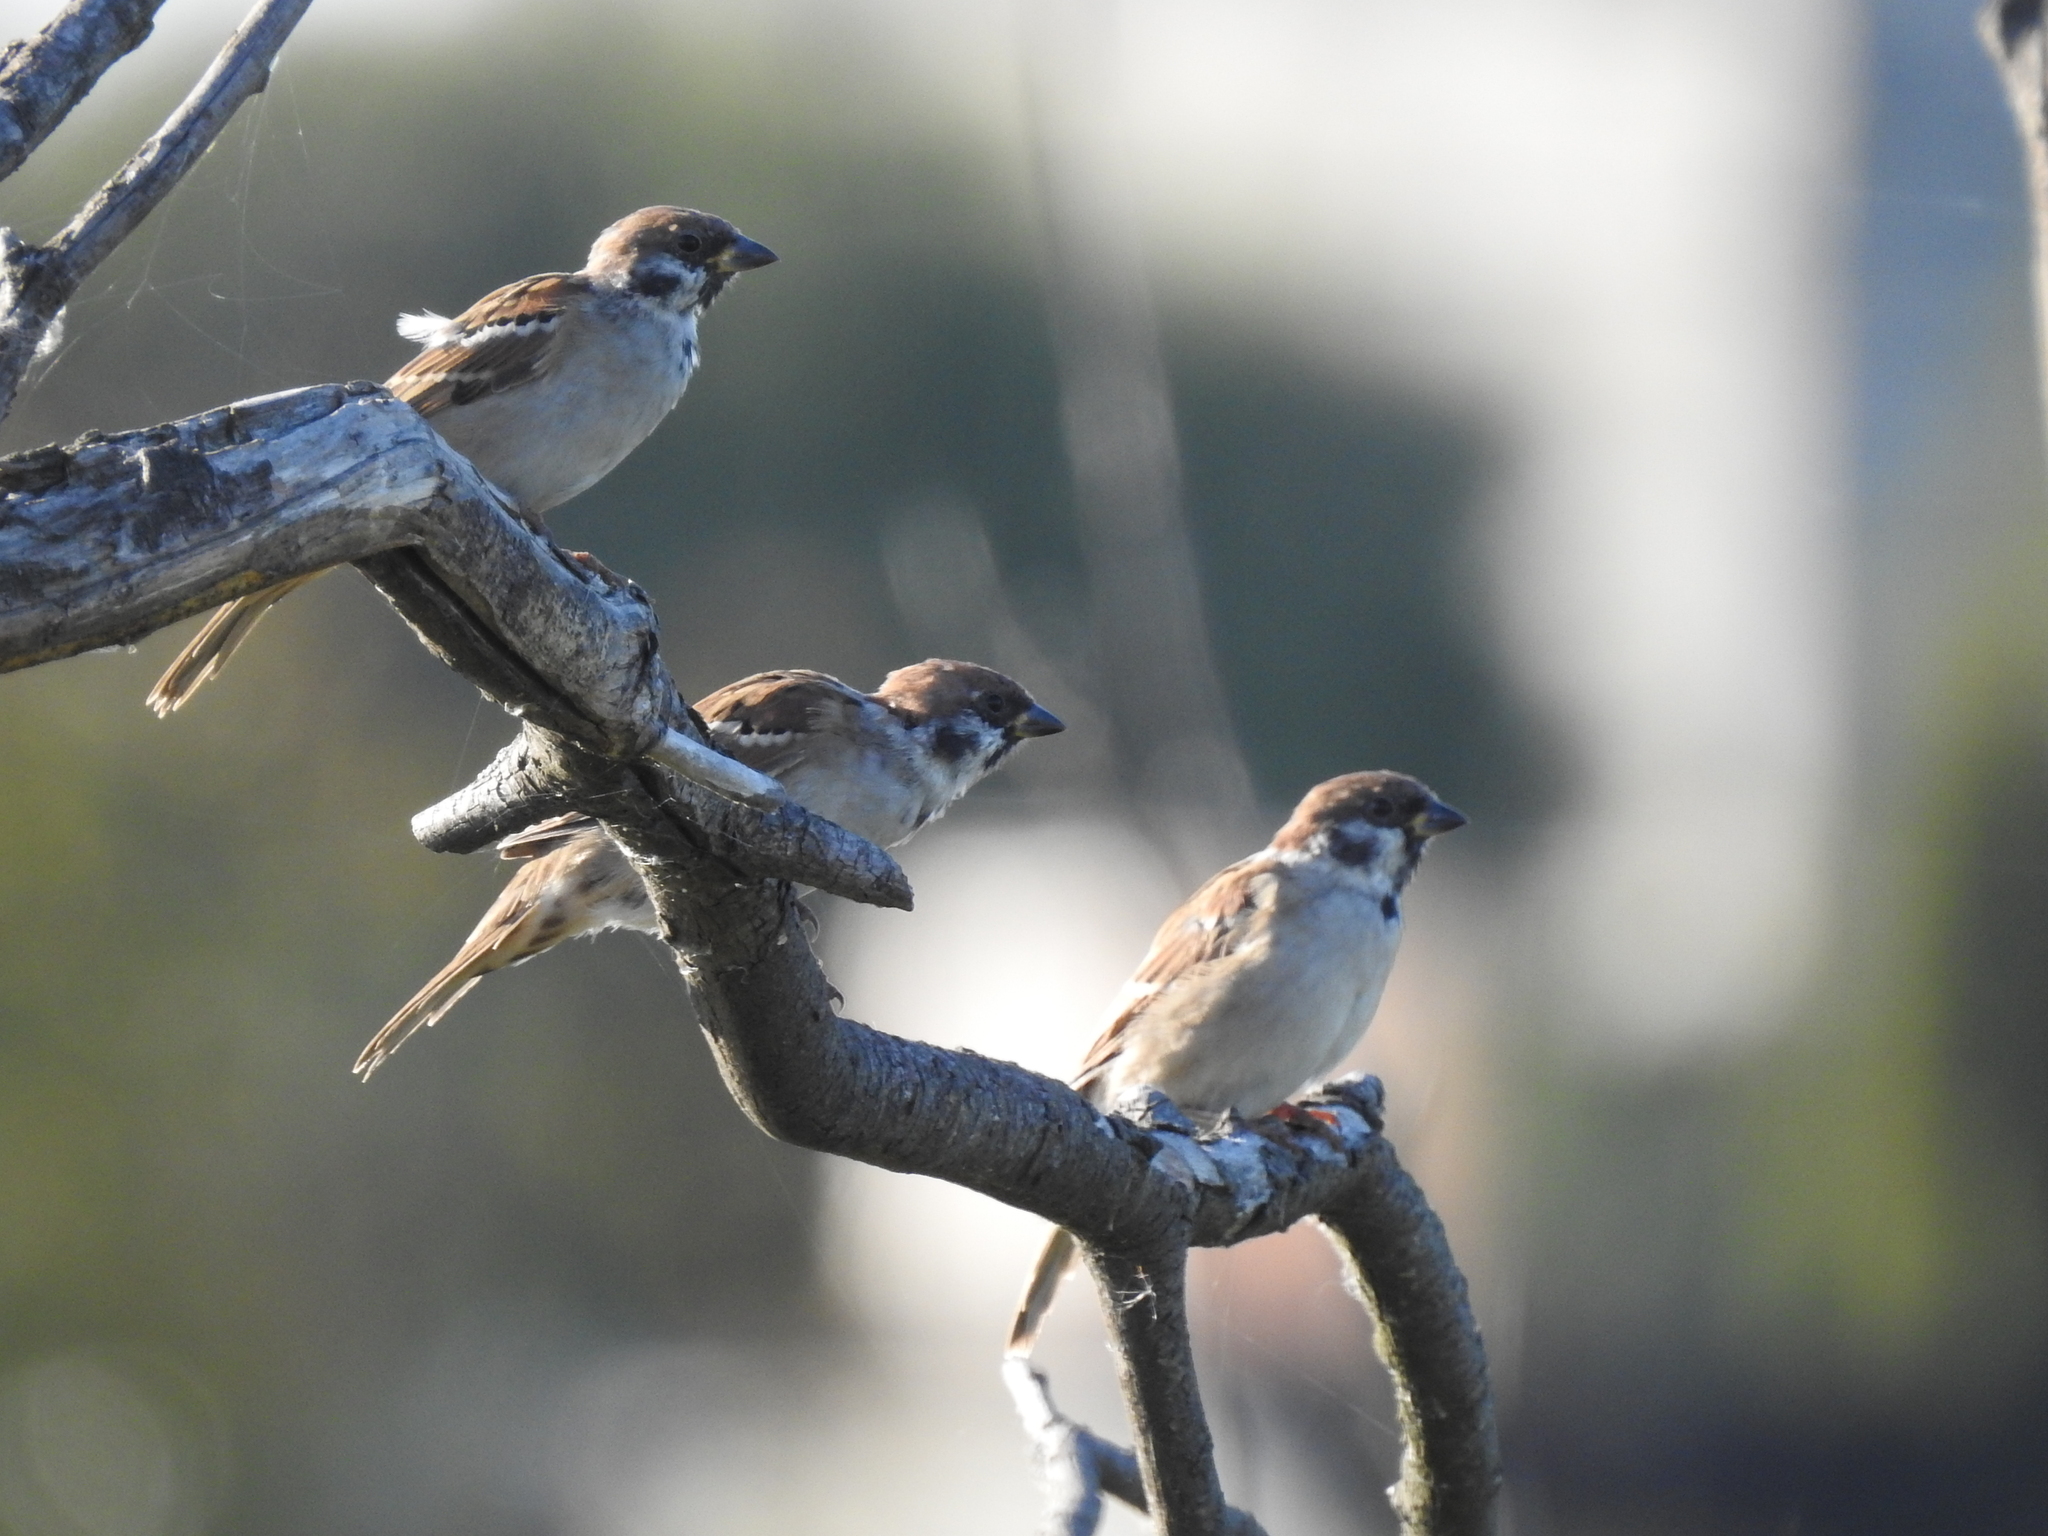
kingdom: Animalia
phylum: Chordata
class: Aves
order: Passeriformes
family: Passeridae
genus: Passer
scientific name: Passer montanus
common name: Eurasian tree sparrow
